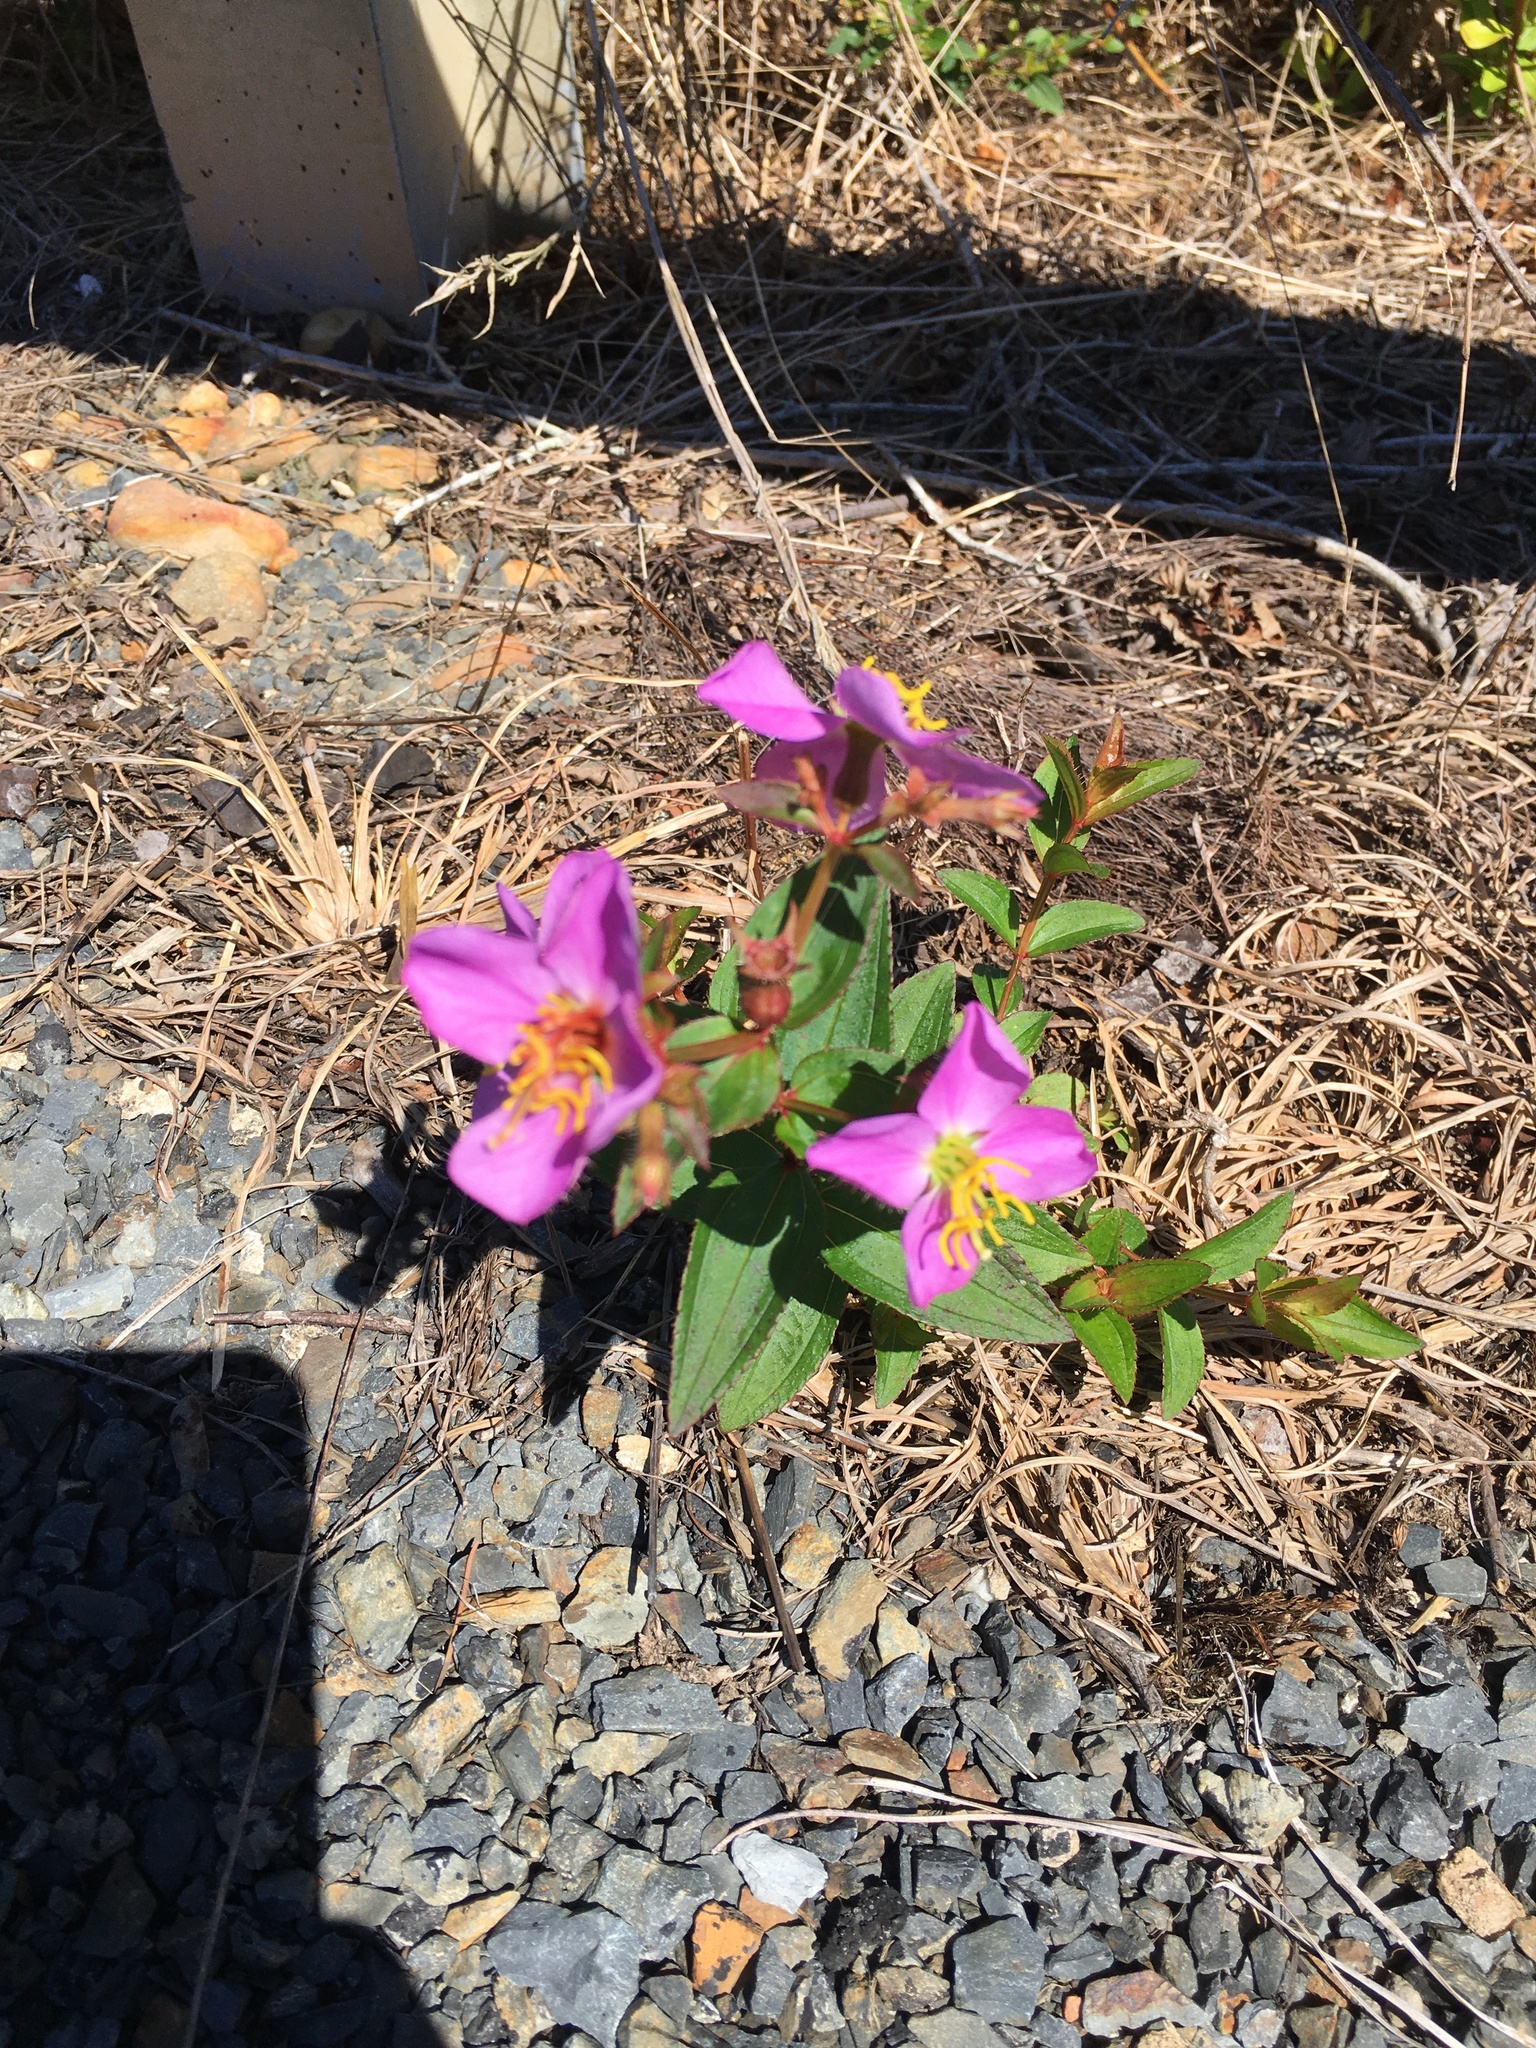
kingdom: Plantae
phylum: Tracheophyta
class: Magnoliopsida
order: Myrtales
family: Melastomataceae
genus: Rhexia
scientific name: Rhexia nashii
